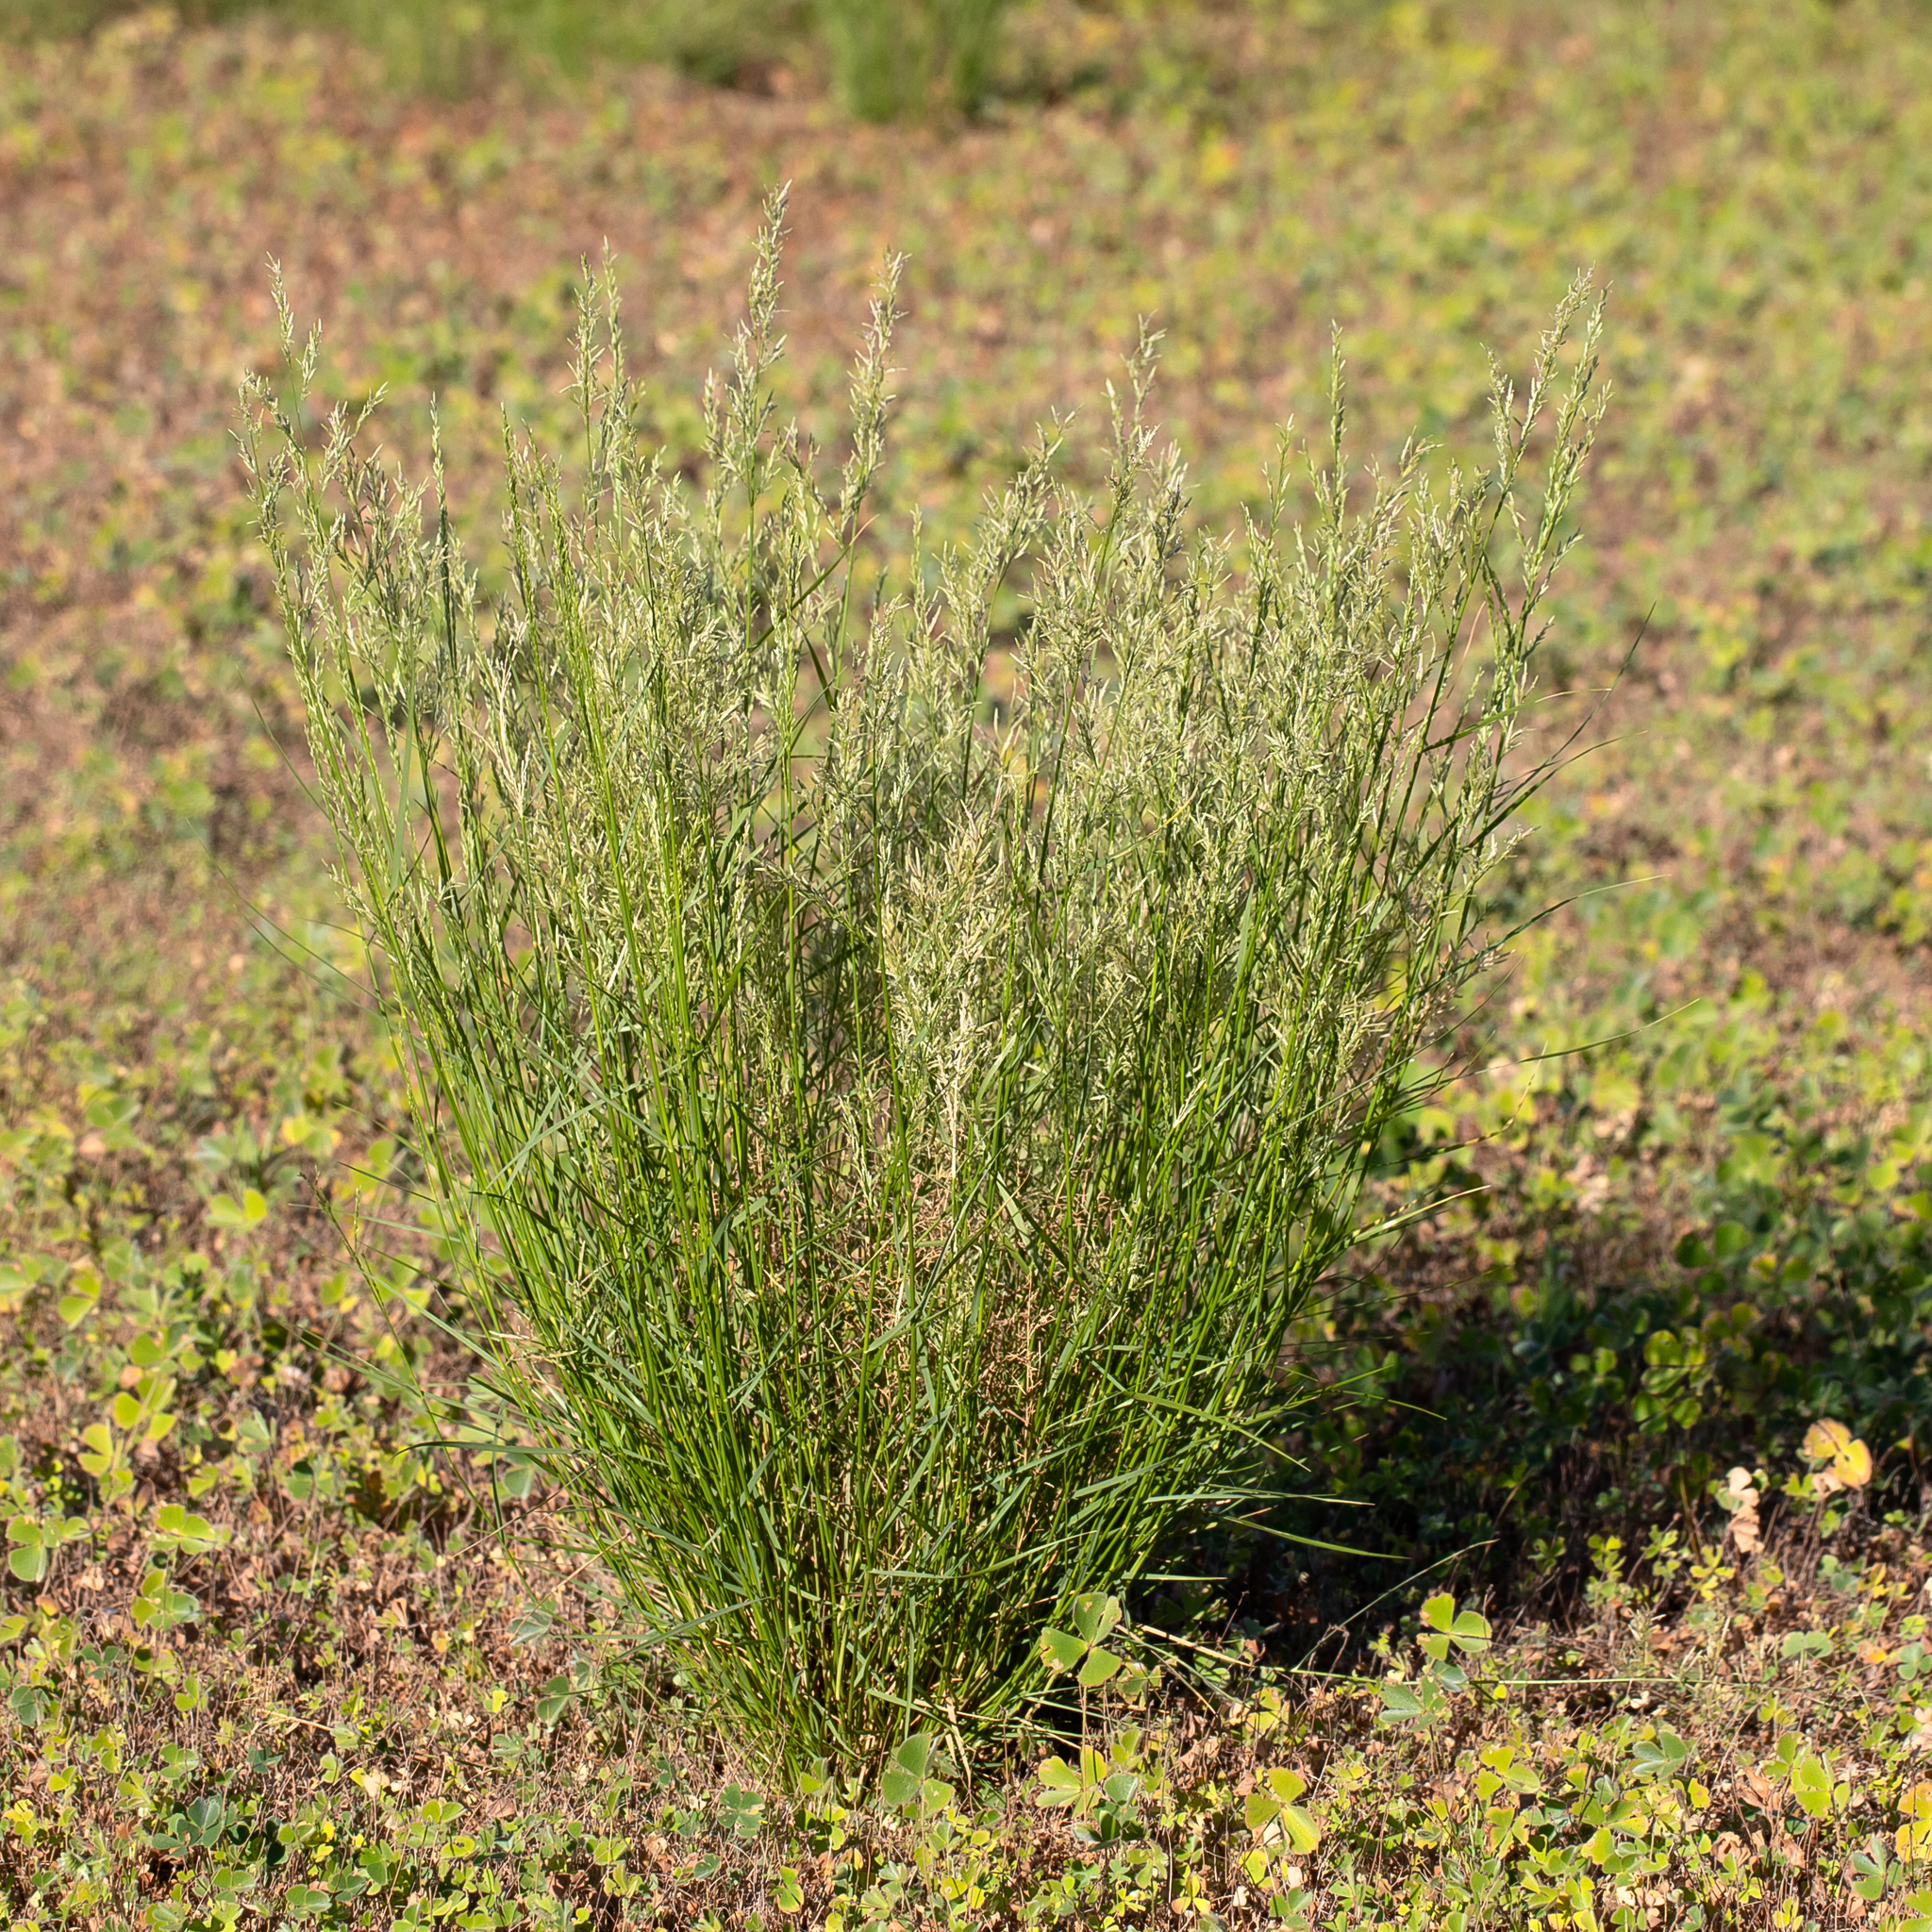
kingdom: Plantae
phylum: Tracheophyta
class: Liliopsida
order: Poales
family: Poaceae
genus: Eragrostis
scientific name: Eragrostis setifolia
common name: Bristleleaf lovegrass
